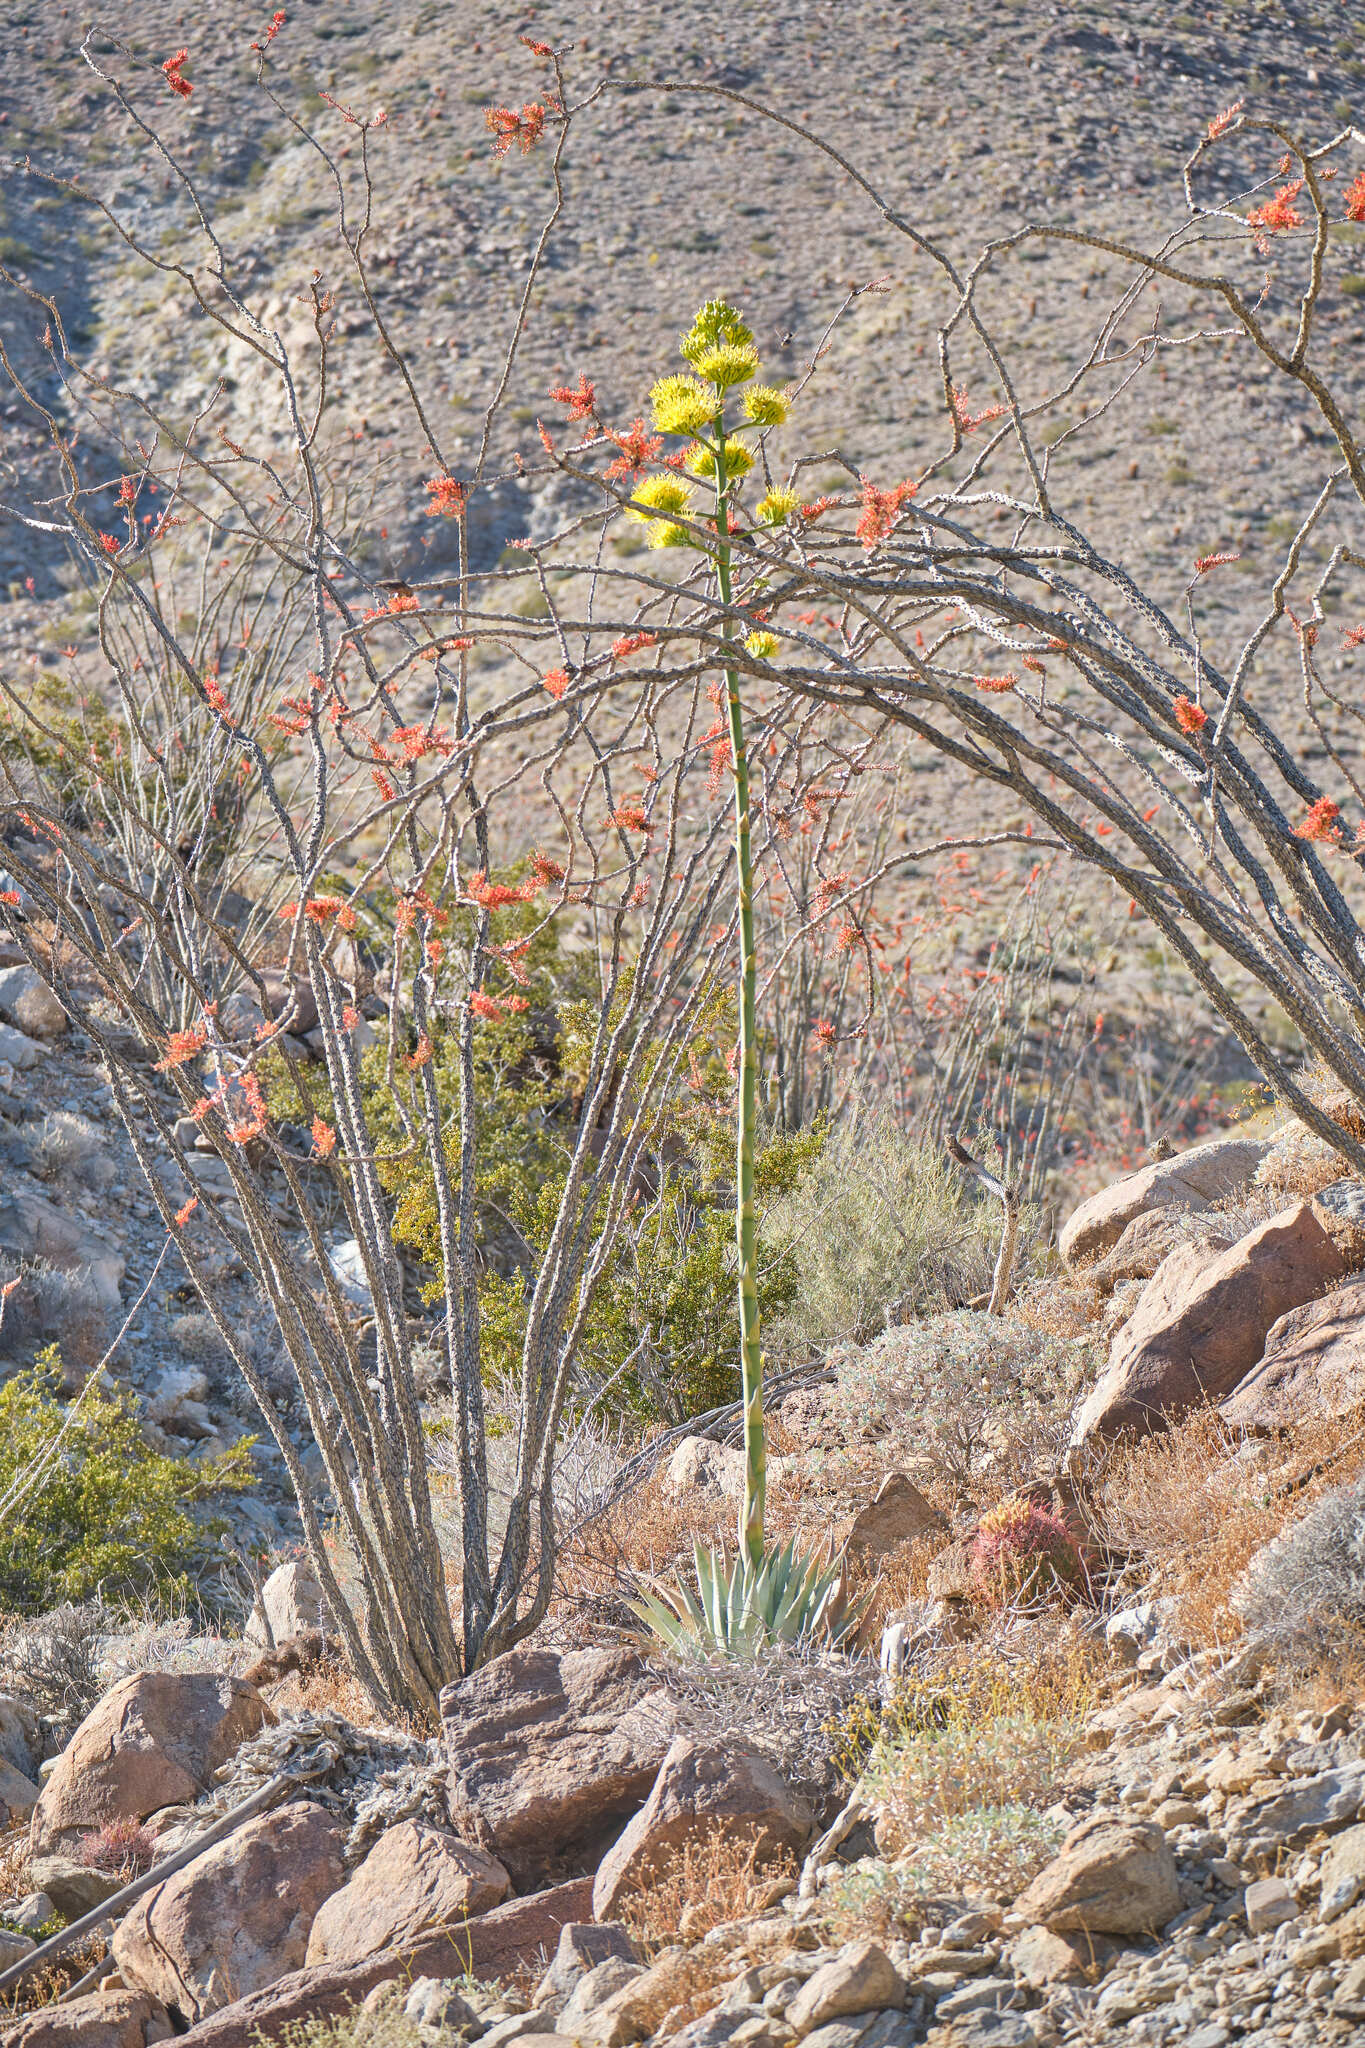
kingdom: Plantae
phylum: Tracheophyta
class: Magnoliopsida
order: Ericales
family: Fouquieriaceae
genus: Fouquieria
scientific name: Fouquieria splendens
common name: Vine-cactus
